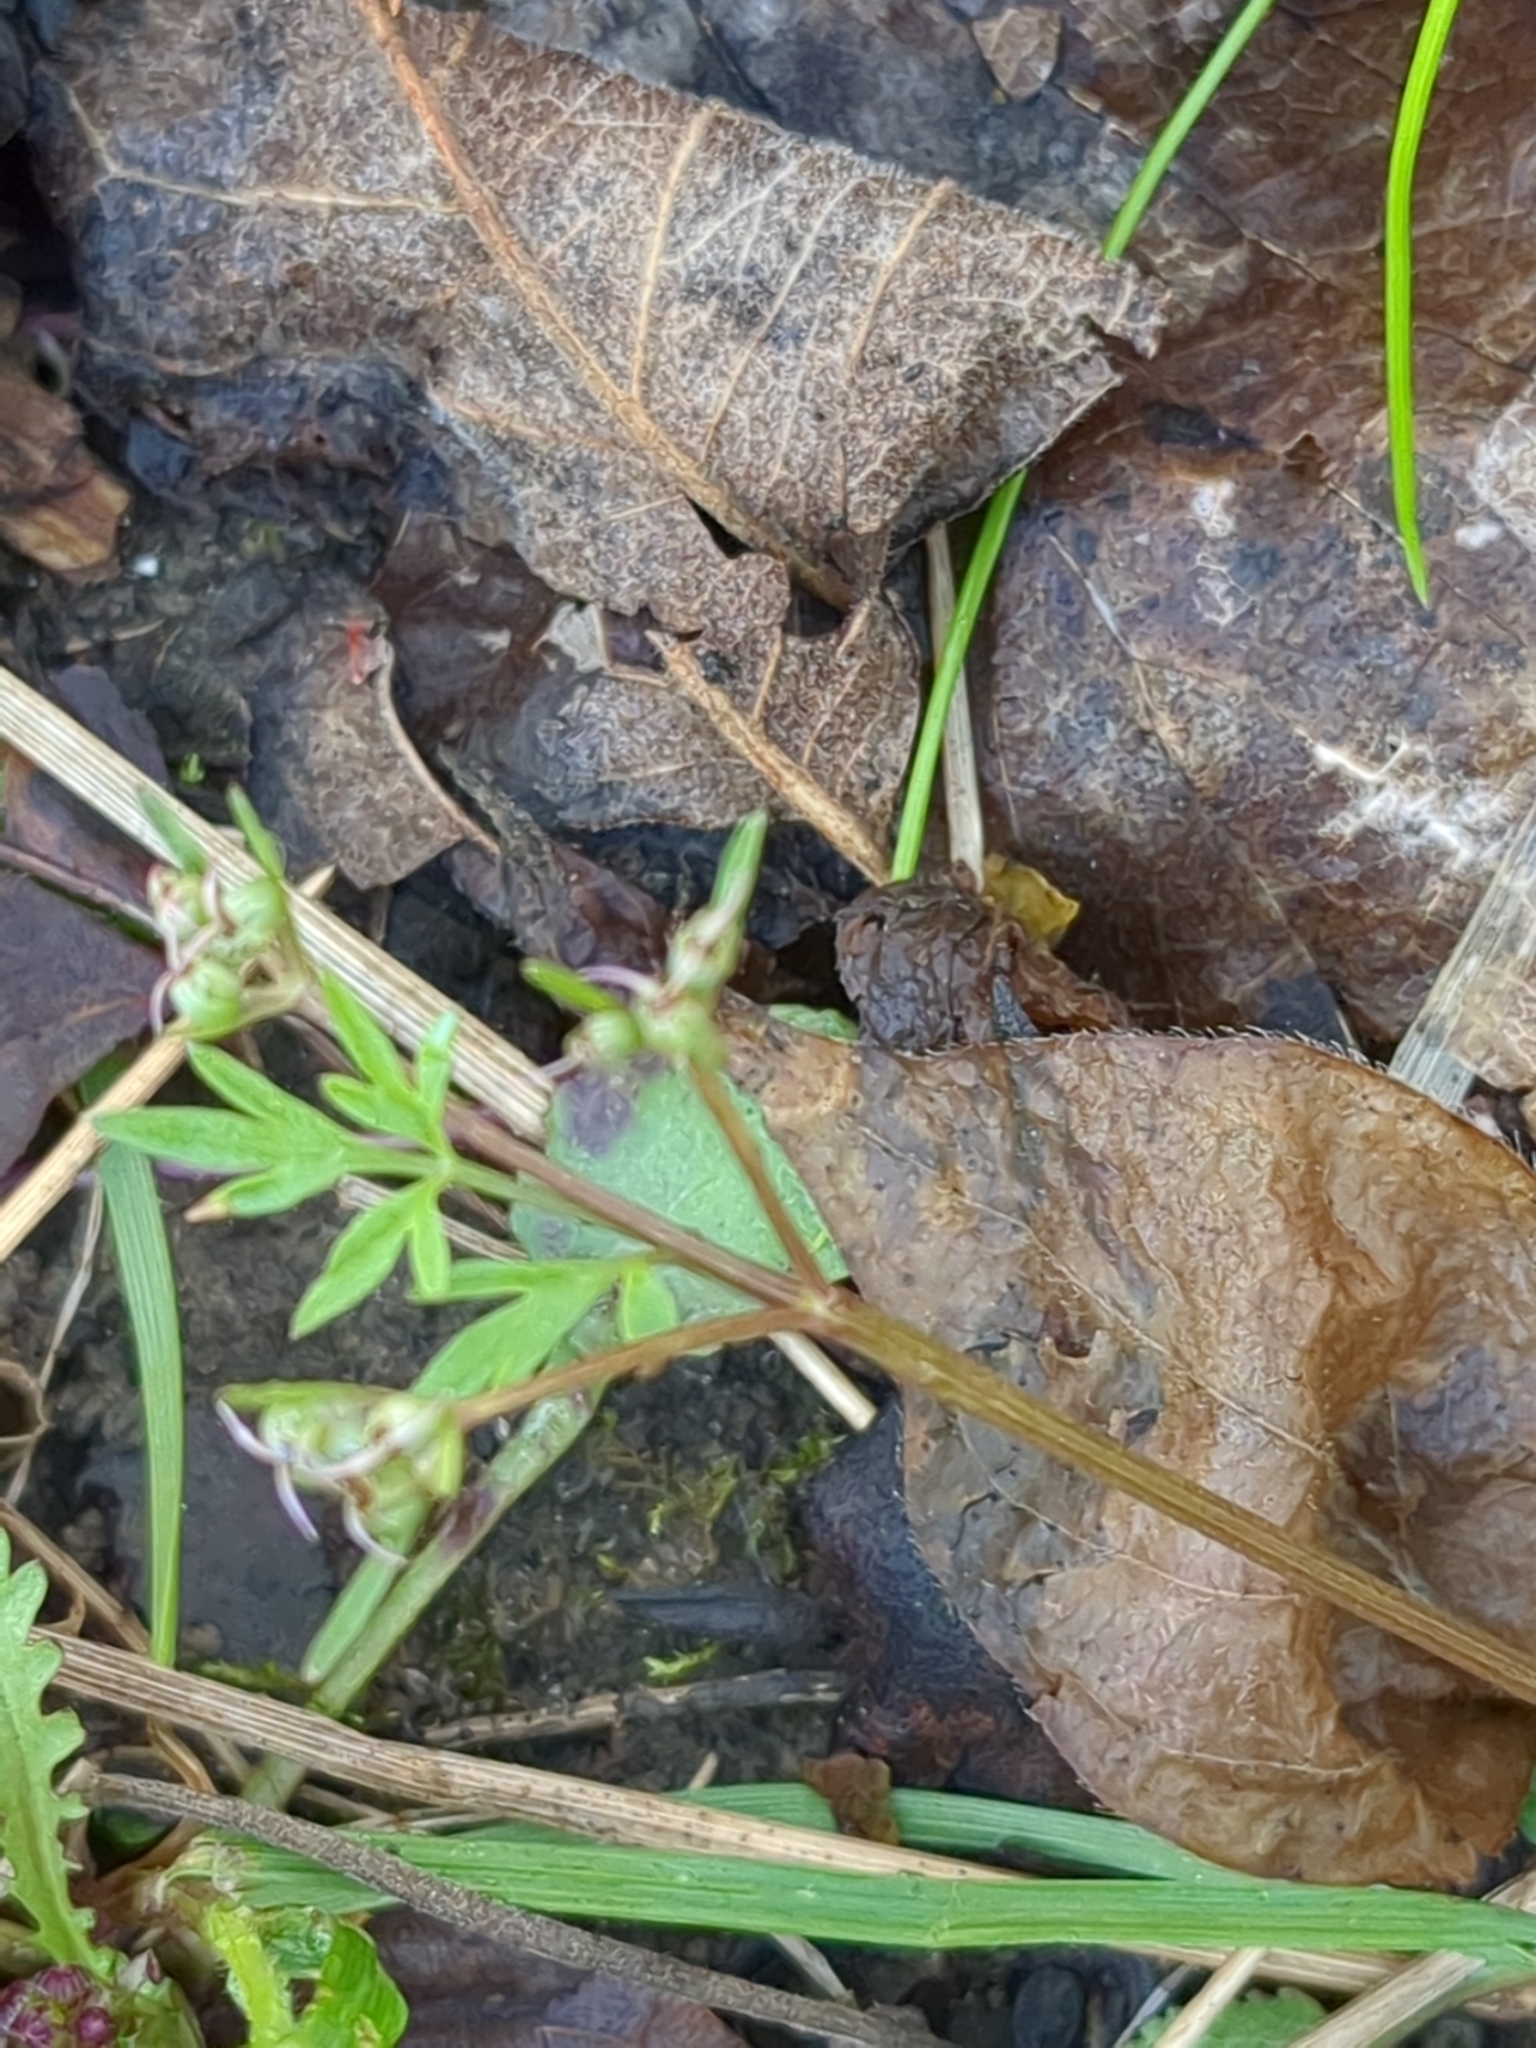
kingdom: Plantae
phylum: Tracheophyta
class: Magnoliopsida
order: Apiales
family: Apiaceae
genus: Erigenia
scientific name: Erigenia bulbosa
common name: Pepper-and-salt
